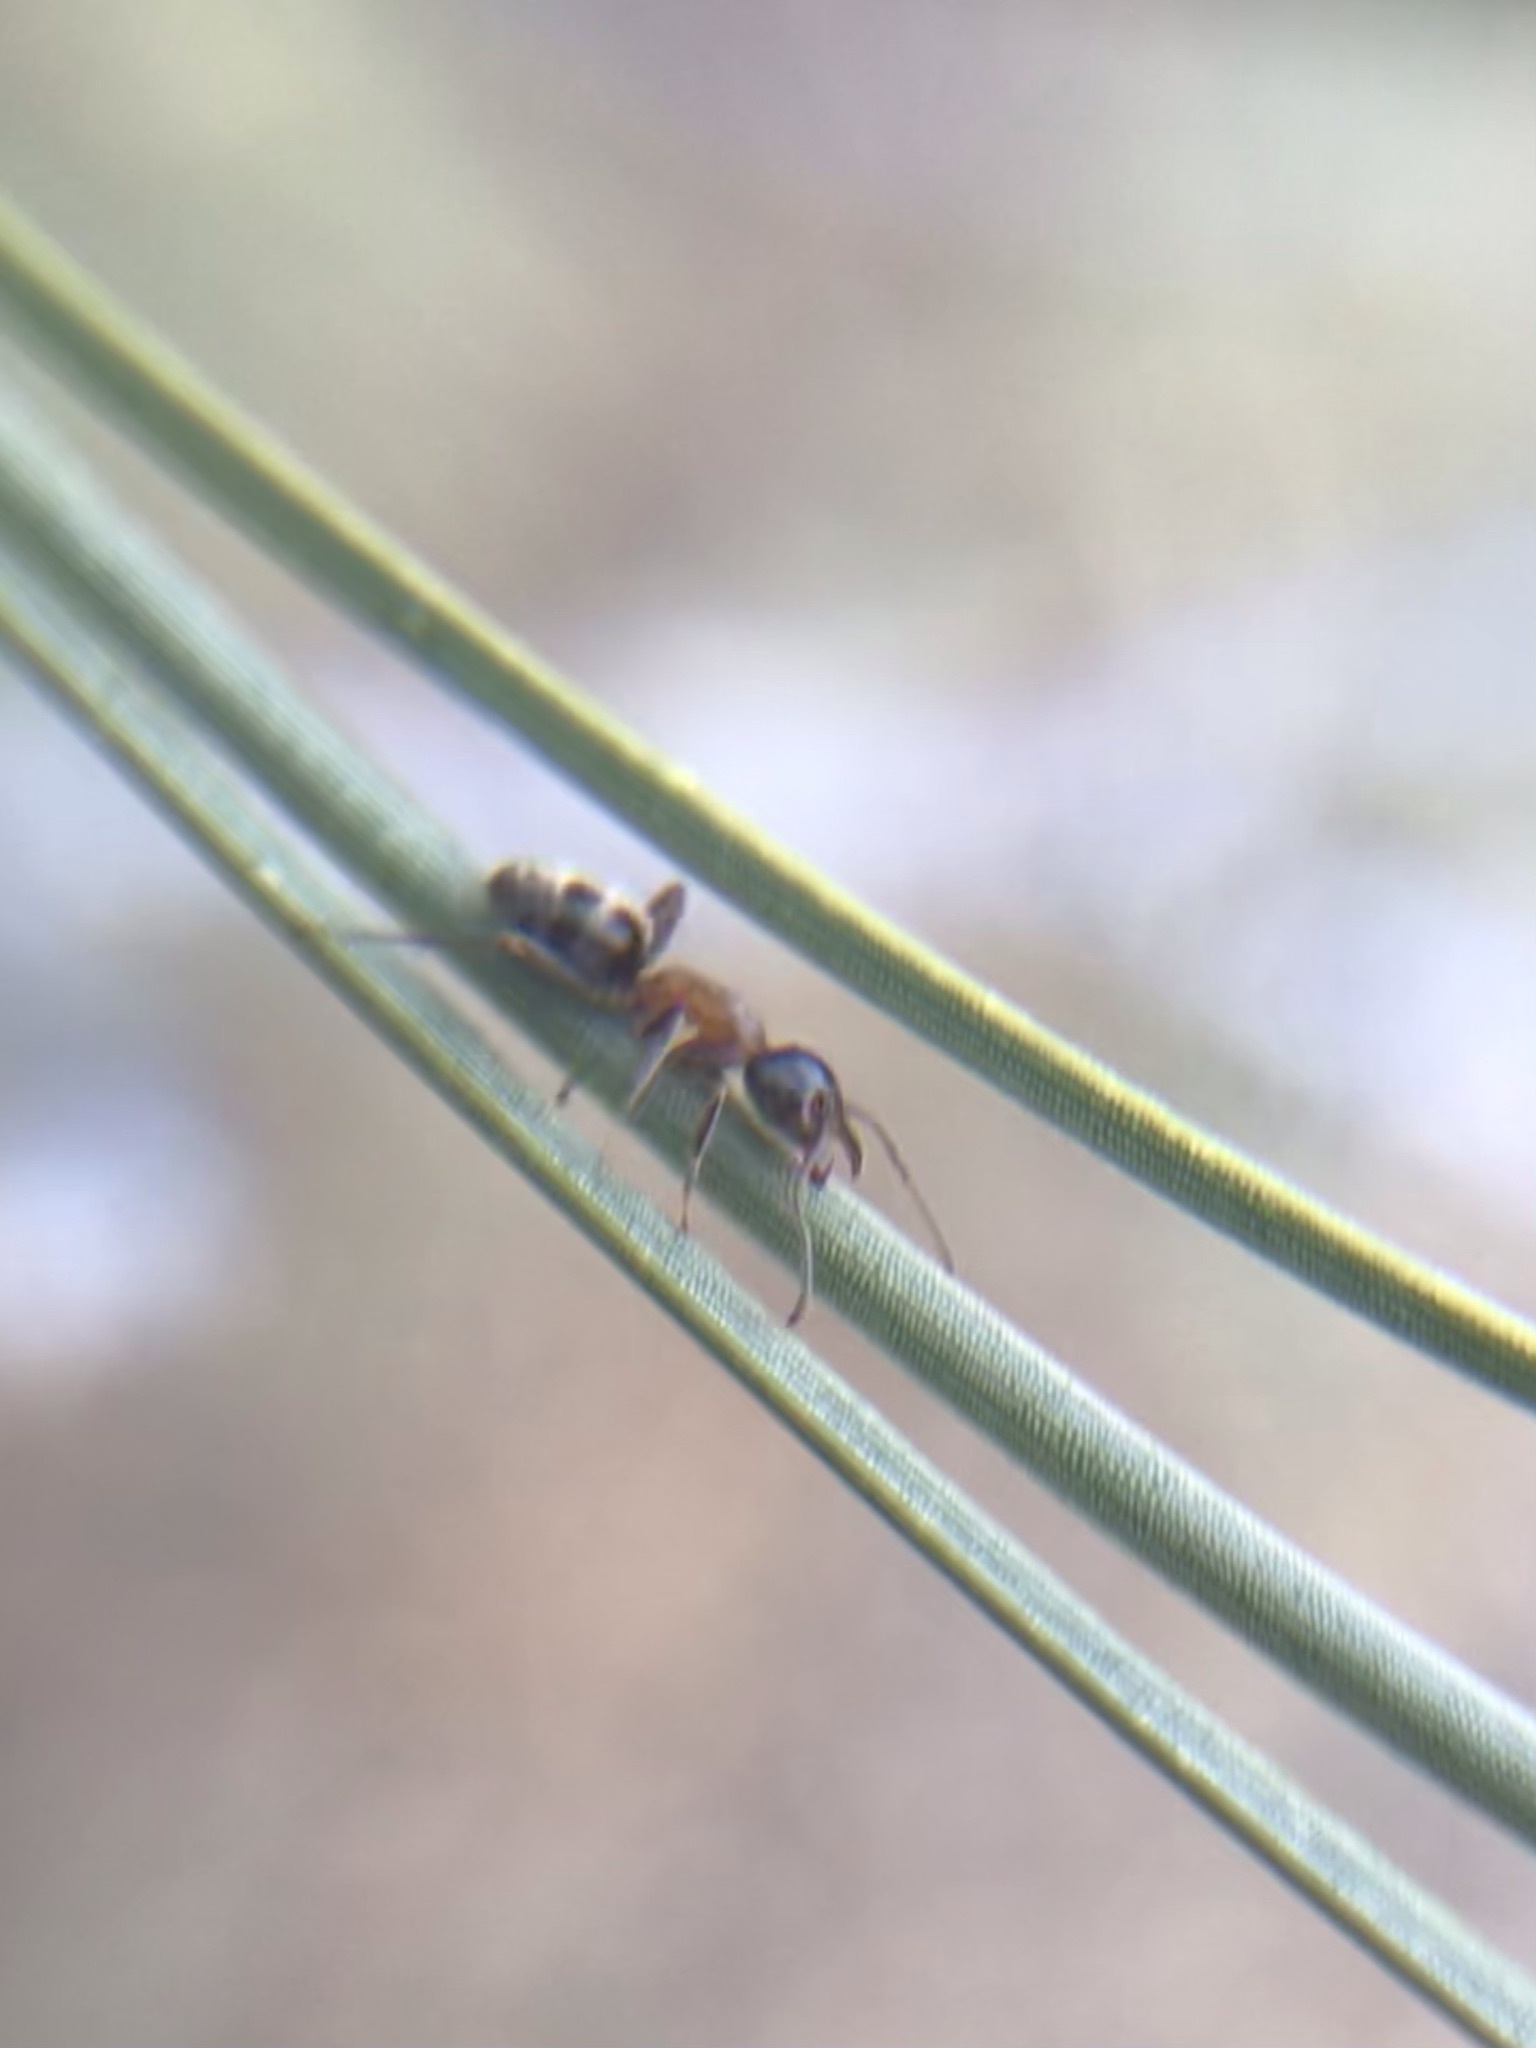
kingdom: Animalia
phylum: Arthropoda
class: Insecta
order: Hymenoptera
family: Formicidae
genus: Liometopum
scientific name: Liometopum occidentale
